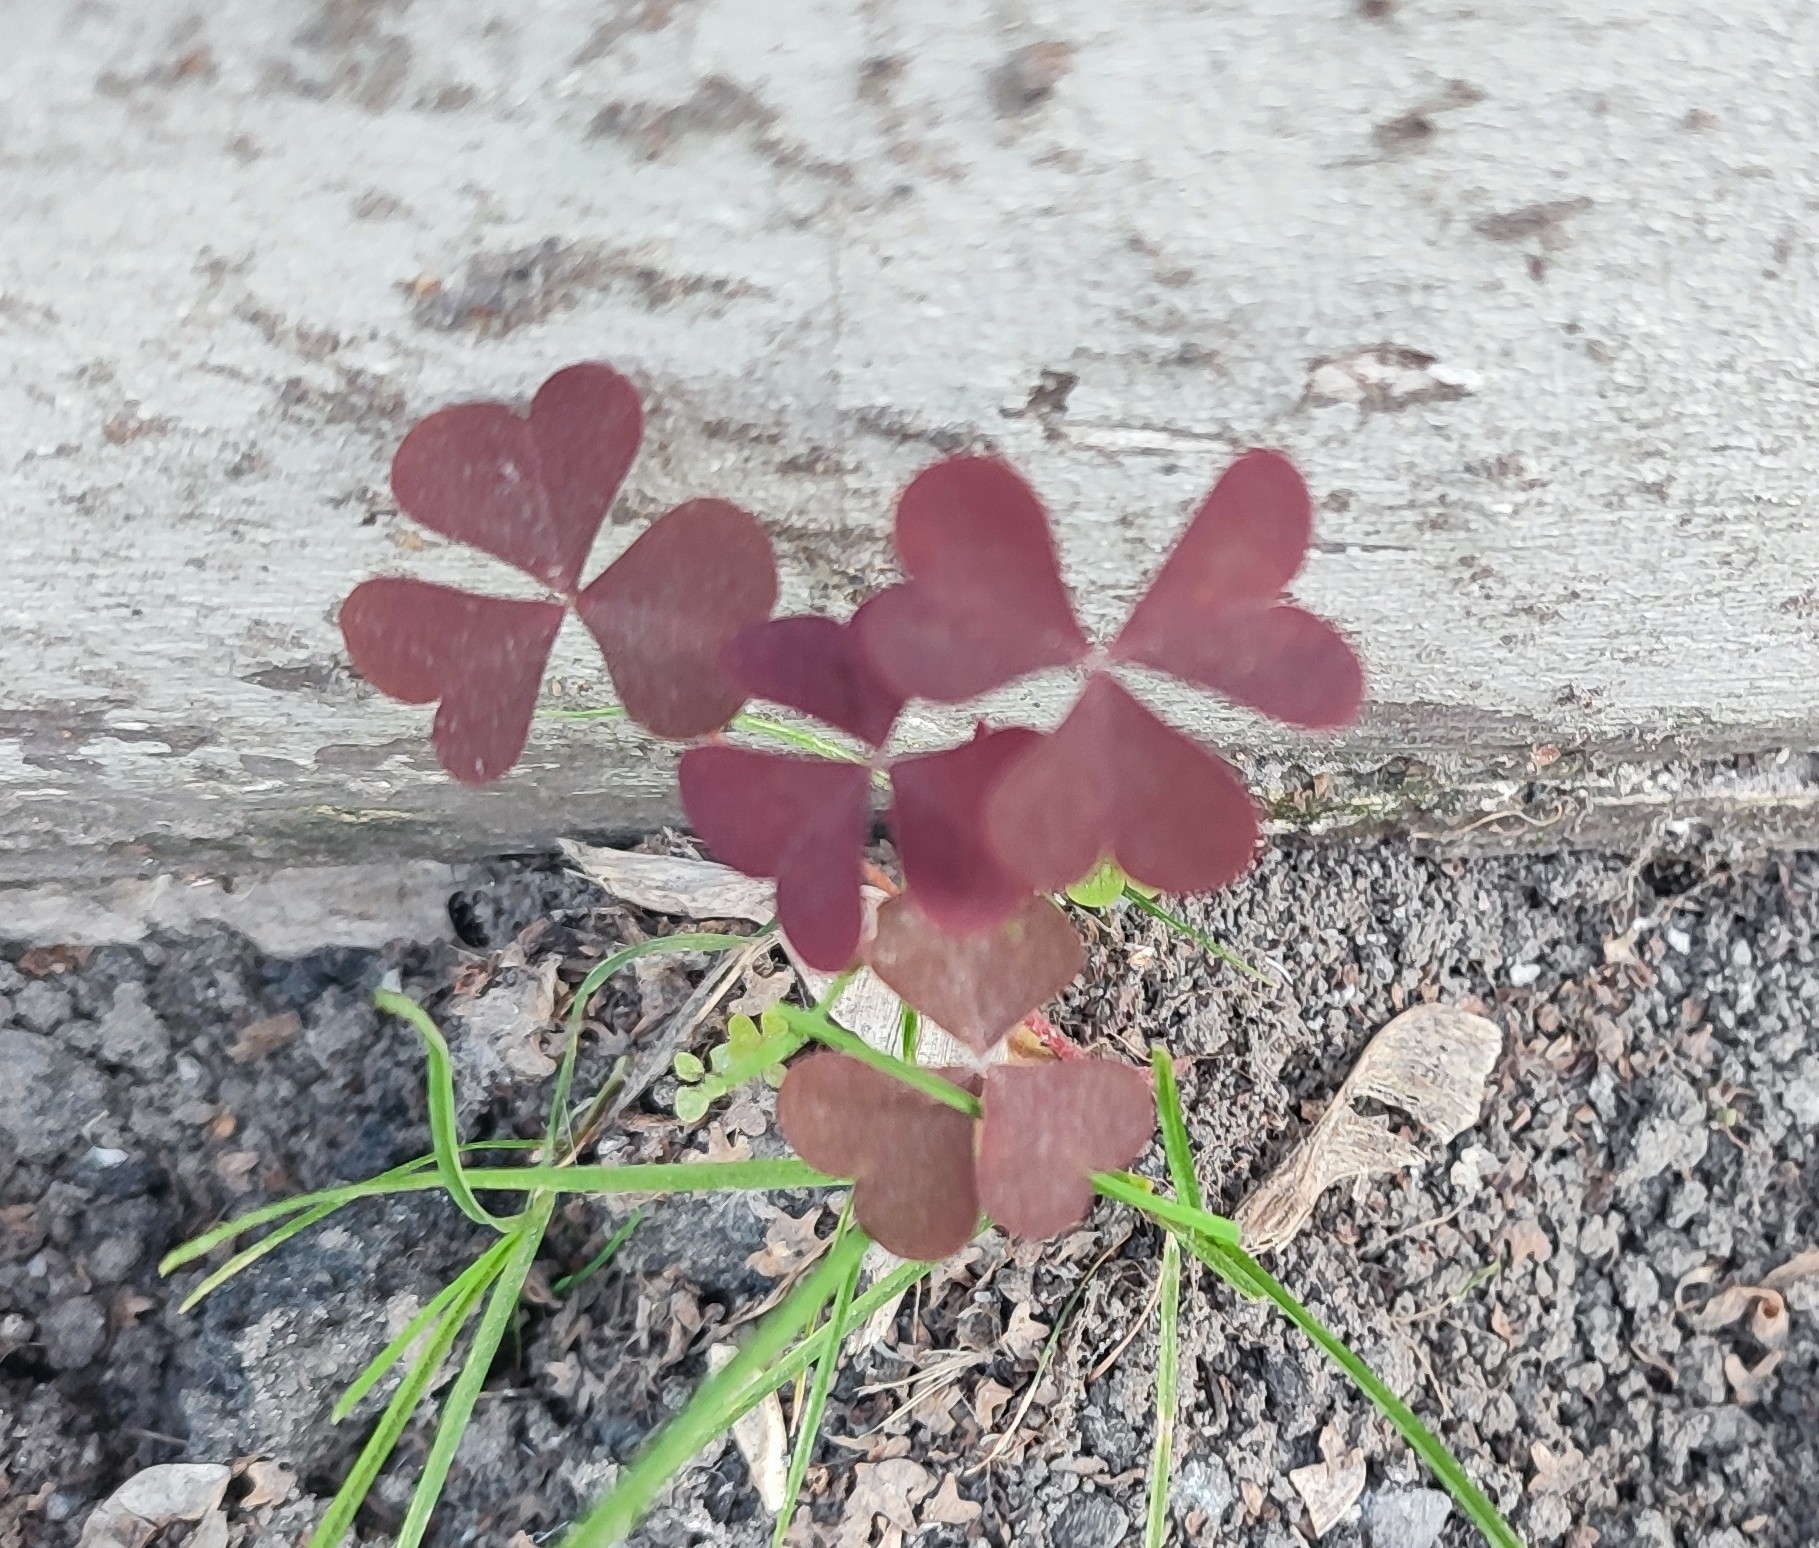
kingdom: Plantae
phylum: Tracheophyta
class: Magnoliopsida
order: Oxalidales
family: Oxalidaceae
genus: Oxalis
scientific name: Oxalis stricta
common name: Upright yellow-sorrel
